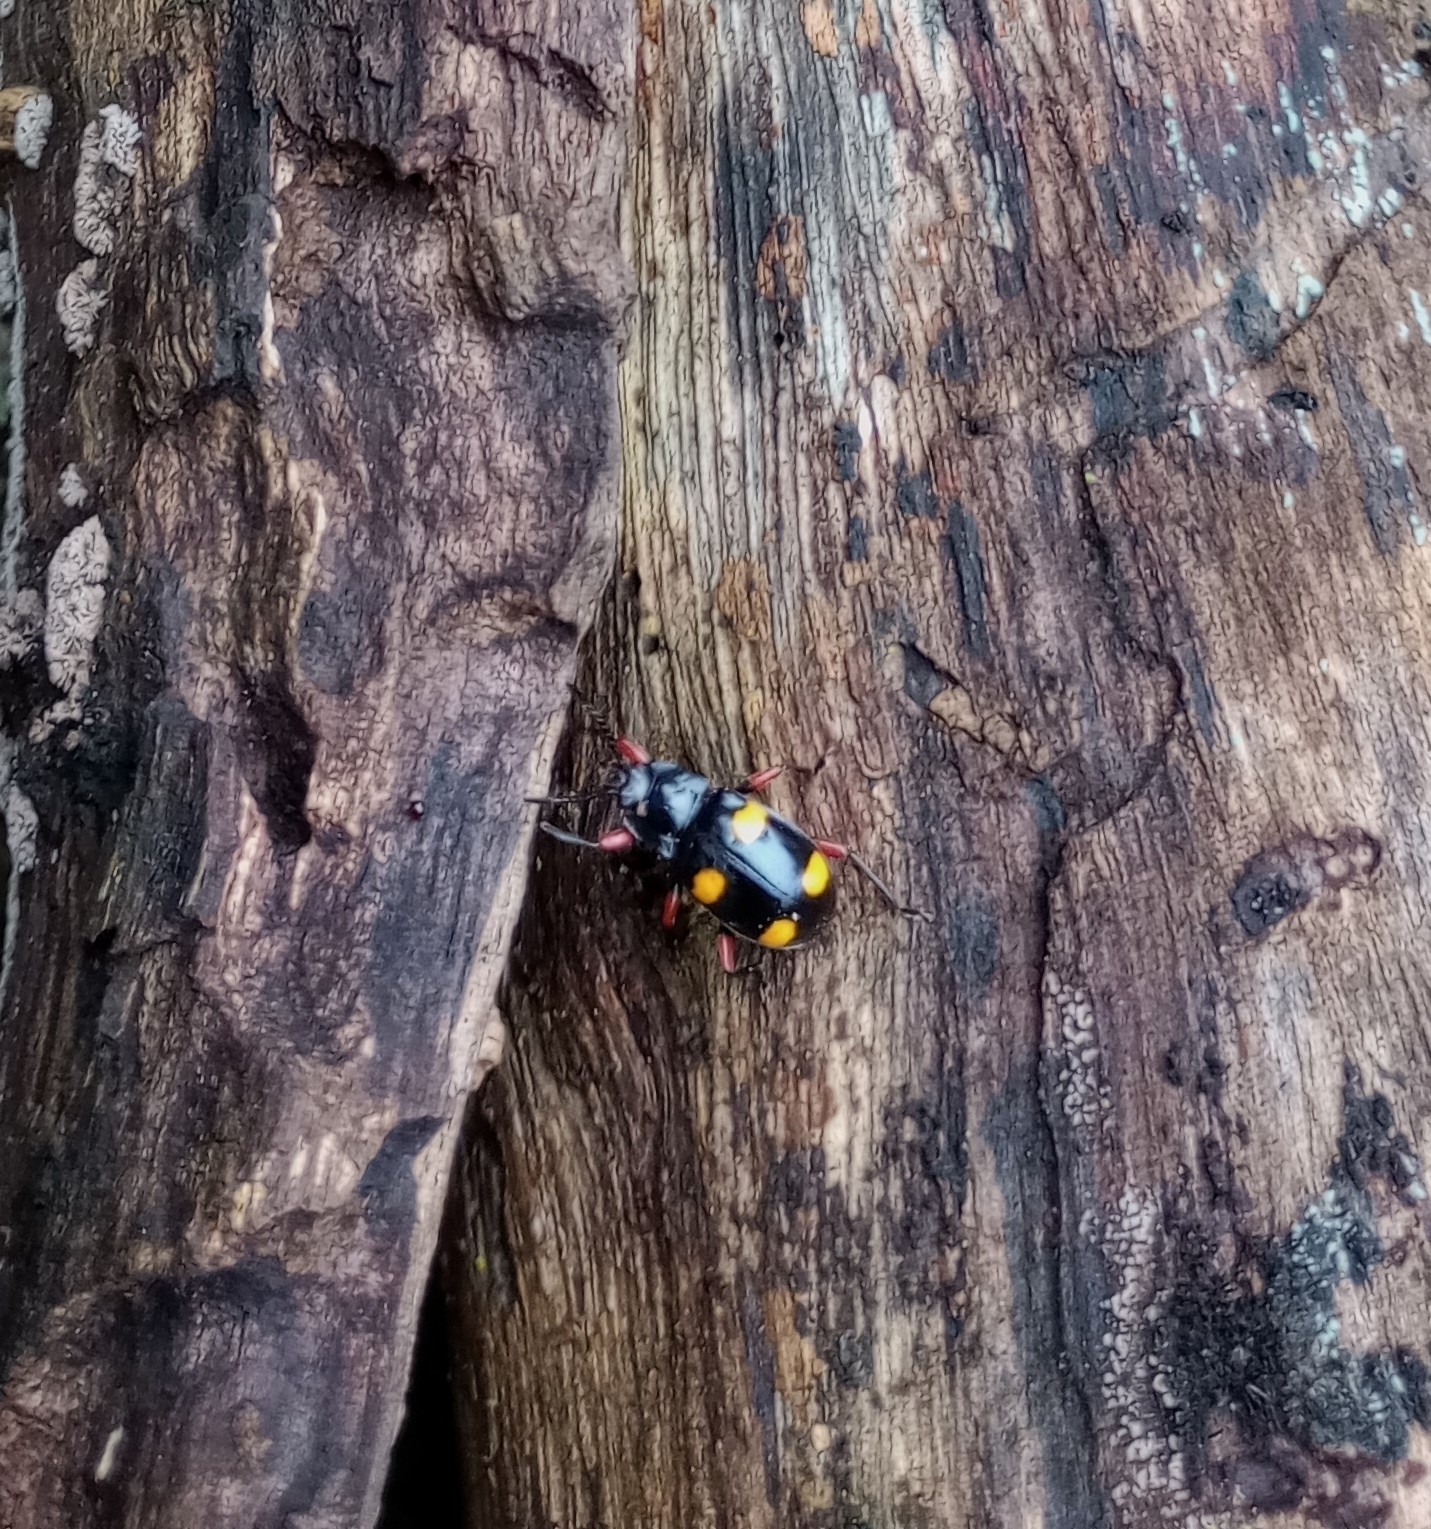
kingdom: Animalia
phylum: Arthropoda
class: Insecta
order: Coleoptera
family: Endomychidae
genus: Eumorphus
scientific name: Eumorphus quadriguttatus
